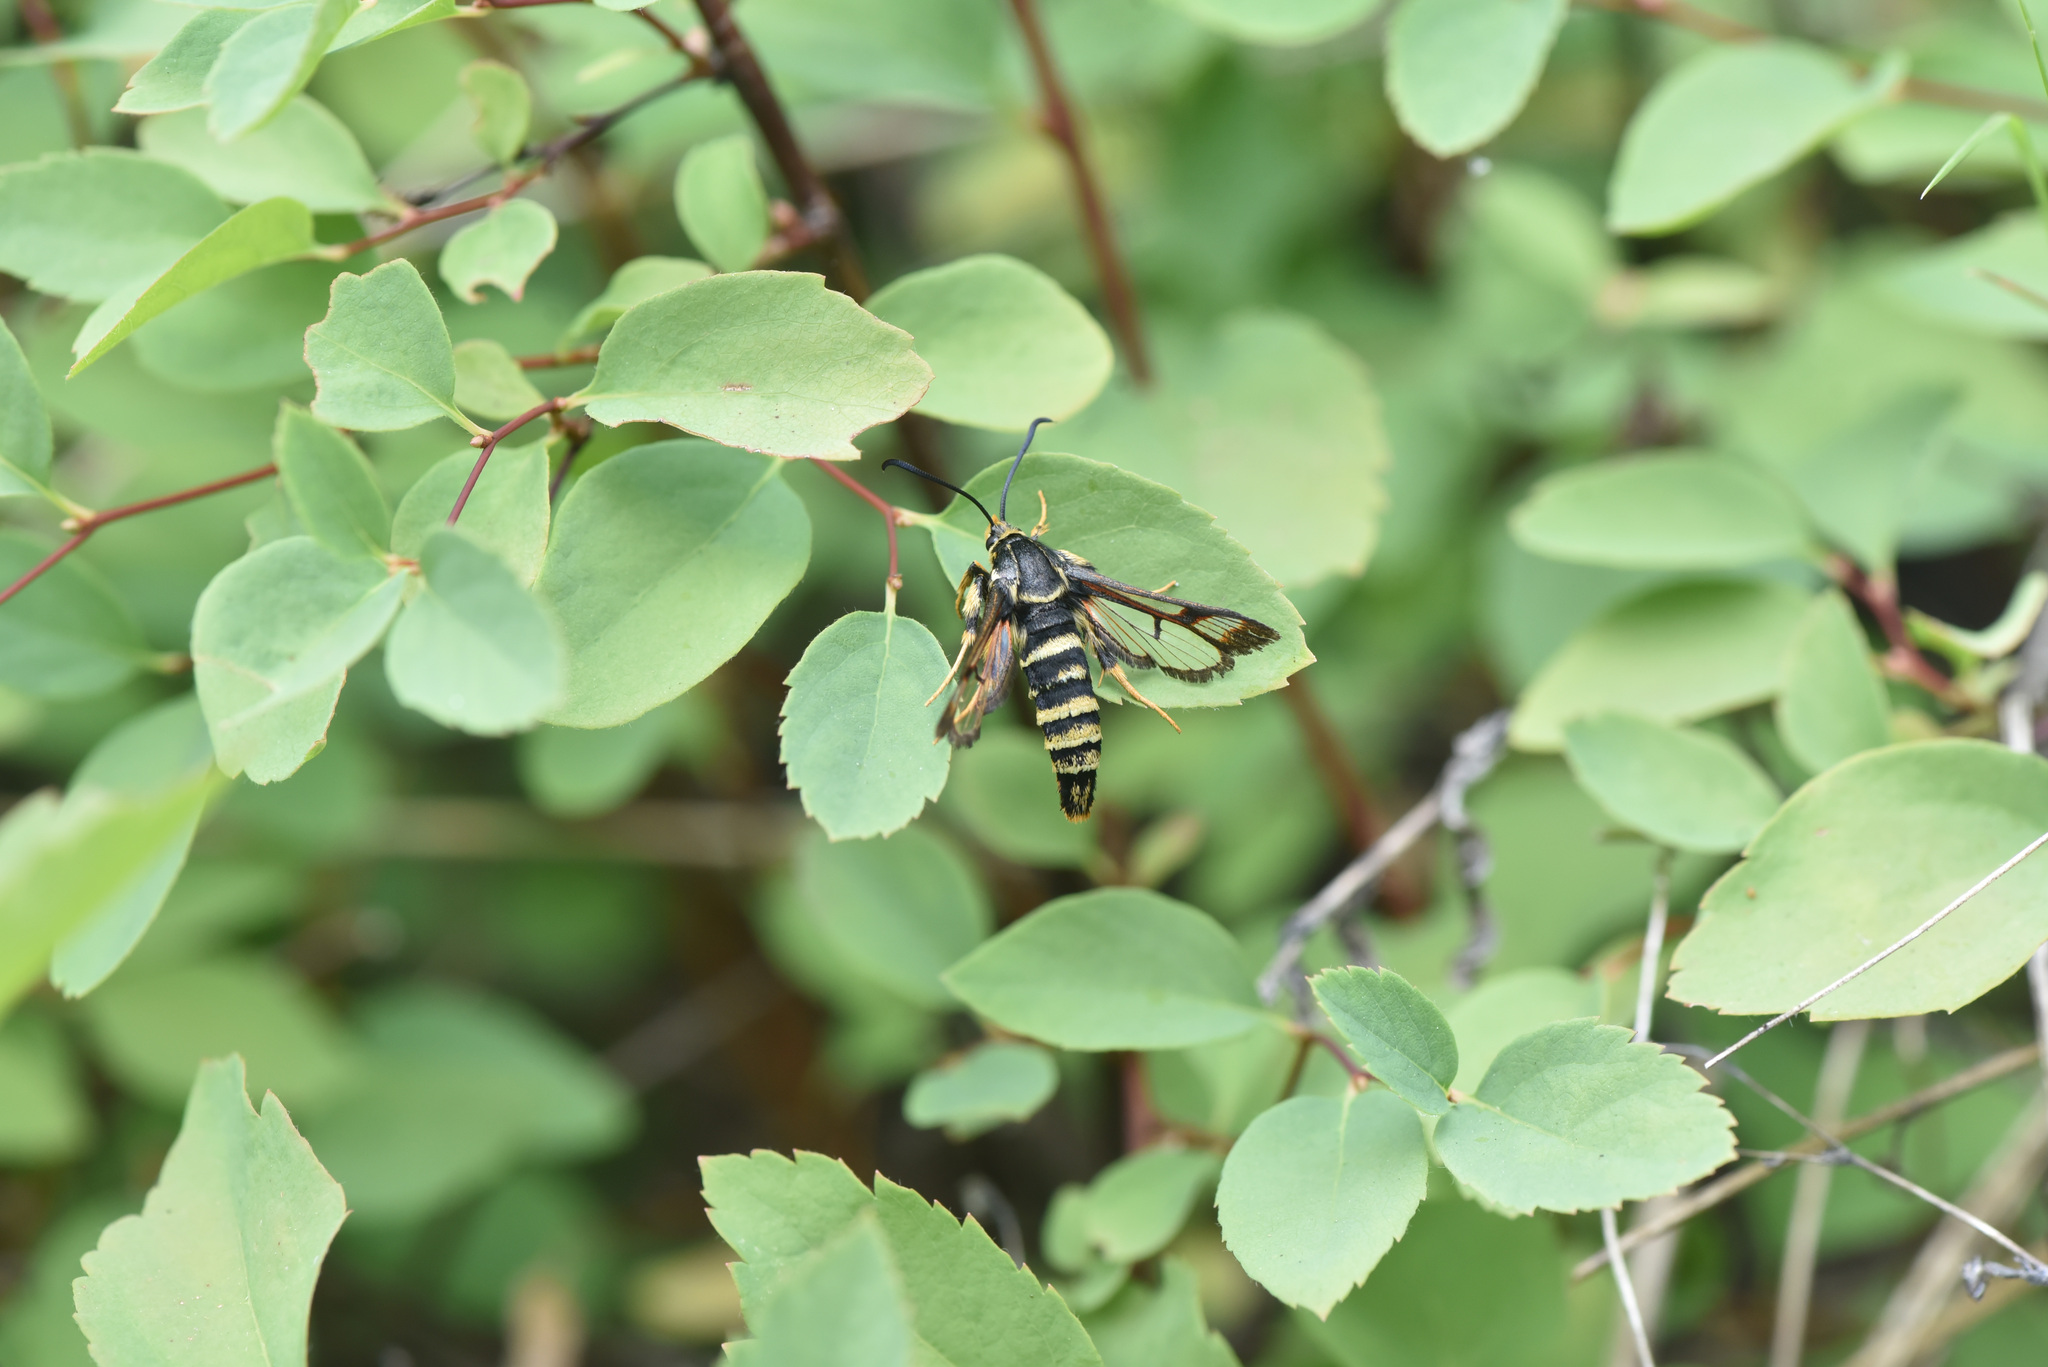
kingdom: Animalia
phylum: Arthropoda
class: Insecta
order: Lepidoptera
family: Sesiidae
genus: Albuna
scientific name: Albuna pyramidalis
